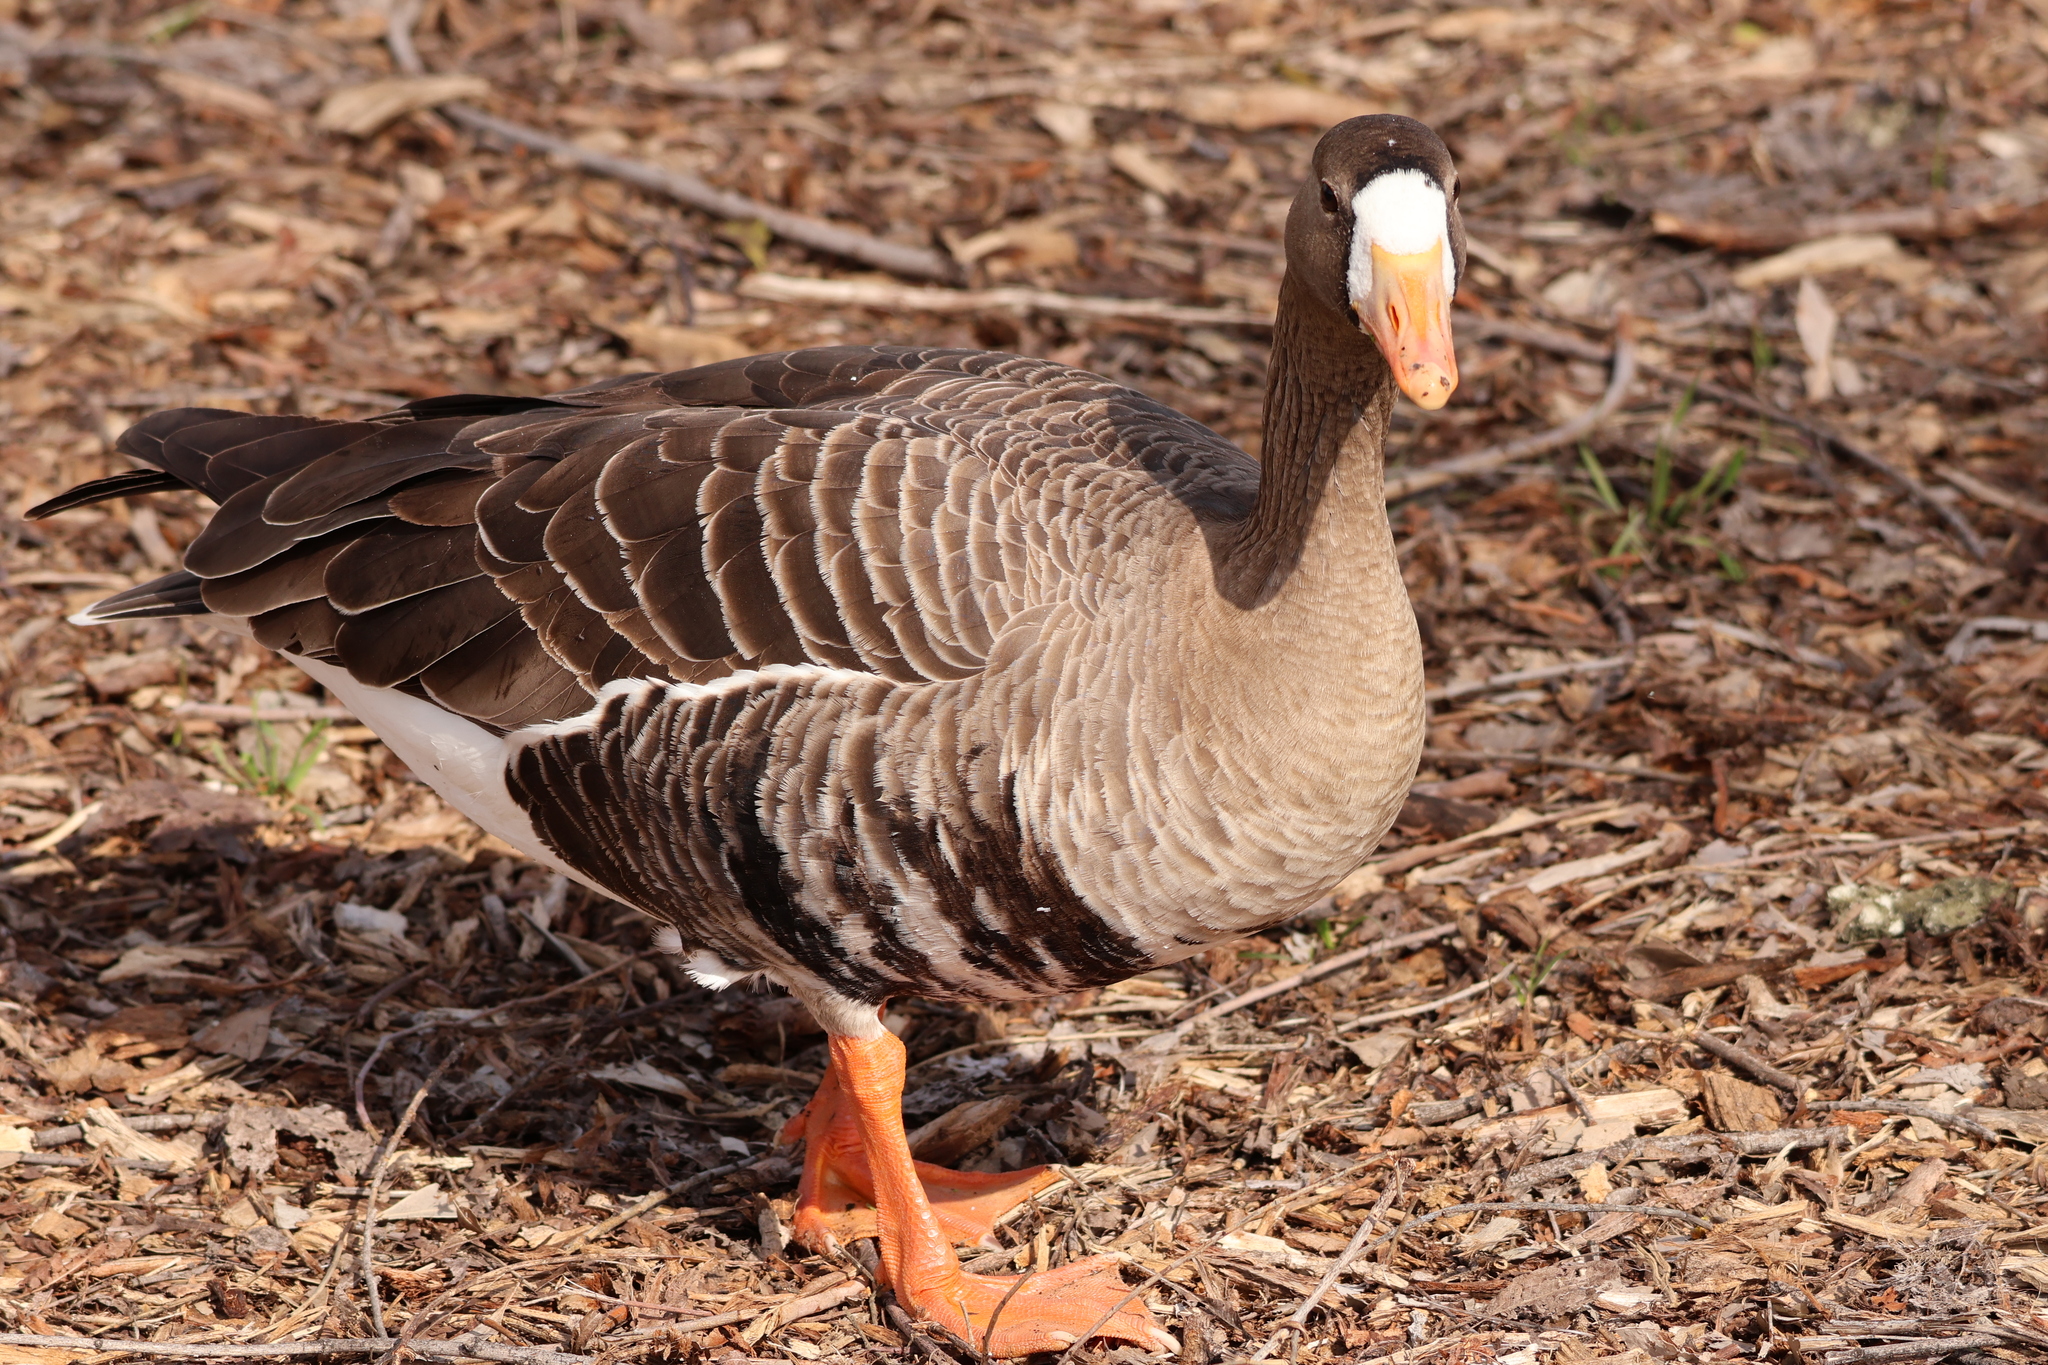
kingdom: Animalia
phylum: Chordata
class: Aves
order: Anseriformes
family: Anatidae
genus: Anser
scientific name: Anser albifrons
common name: Greater white-fronted goose
